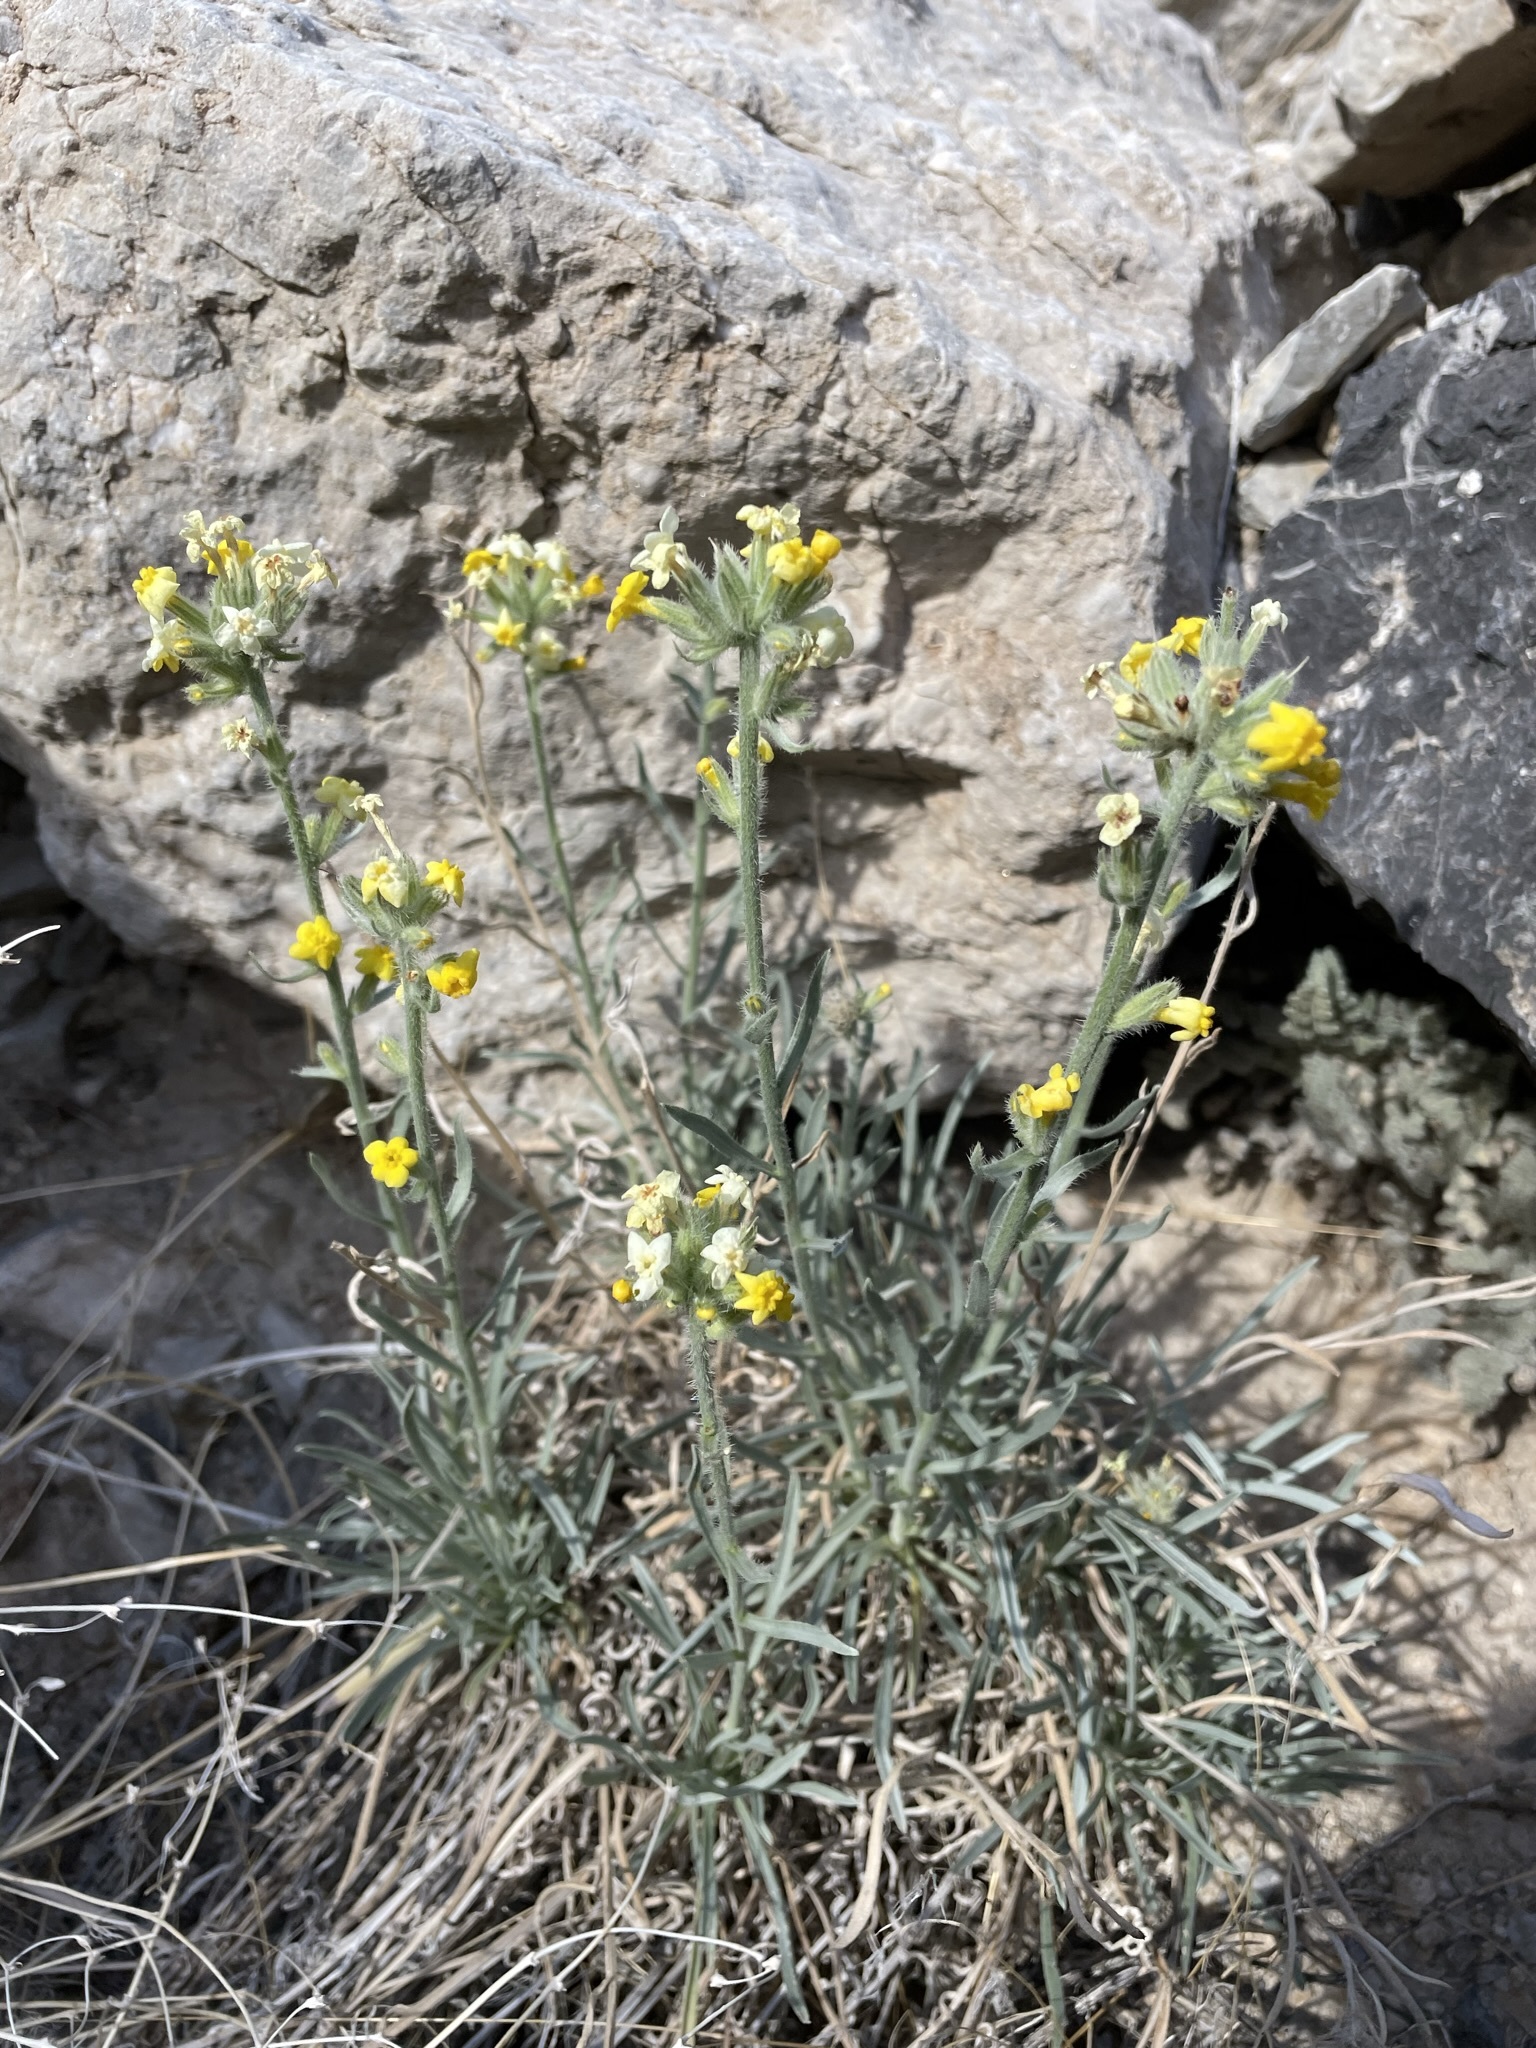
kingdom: Plantae
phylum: Tracheophyta
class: Magnoliopsida
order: Boraginales
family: Boraginaceae
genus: Oreocarya
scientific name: Oreocarya confertiflora
